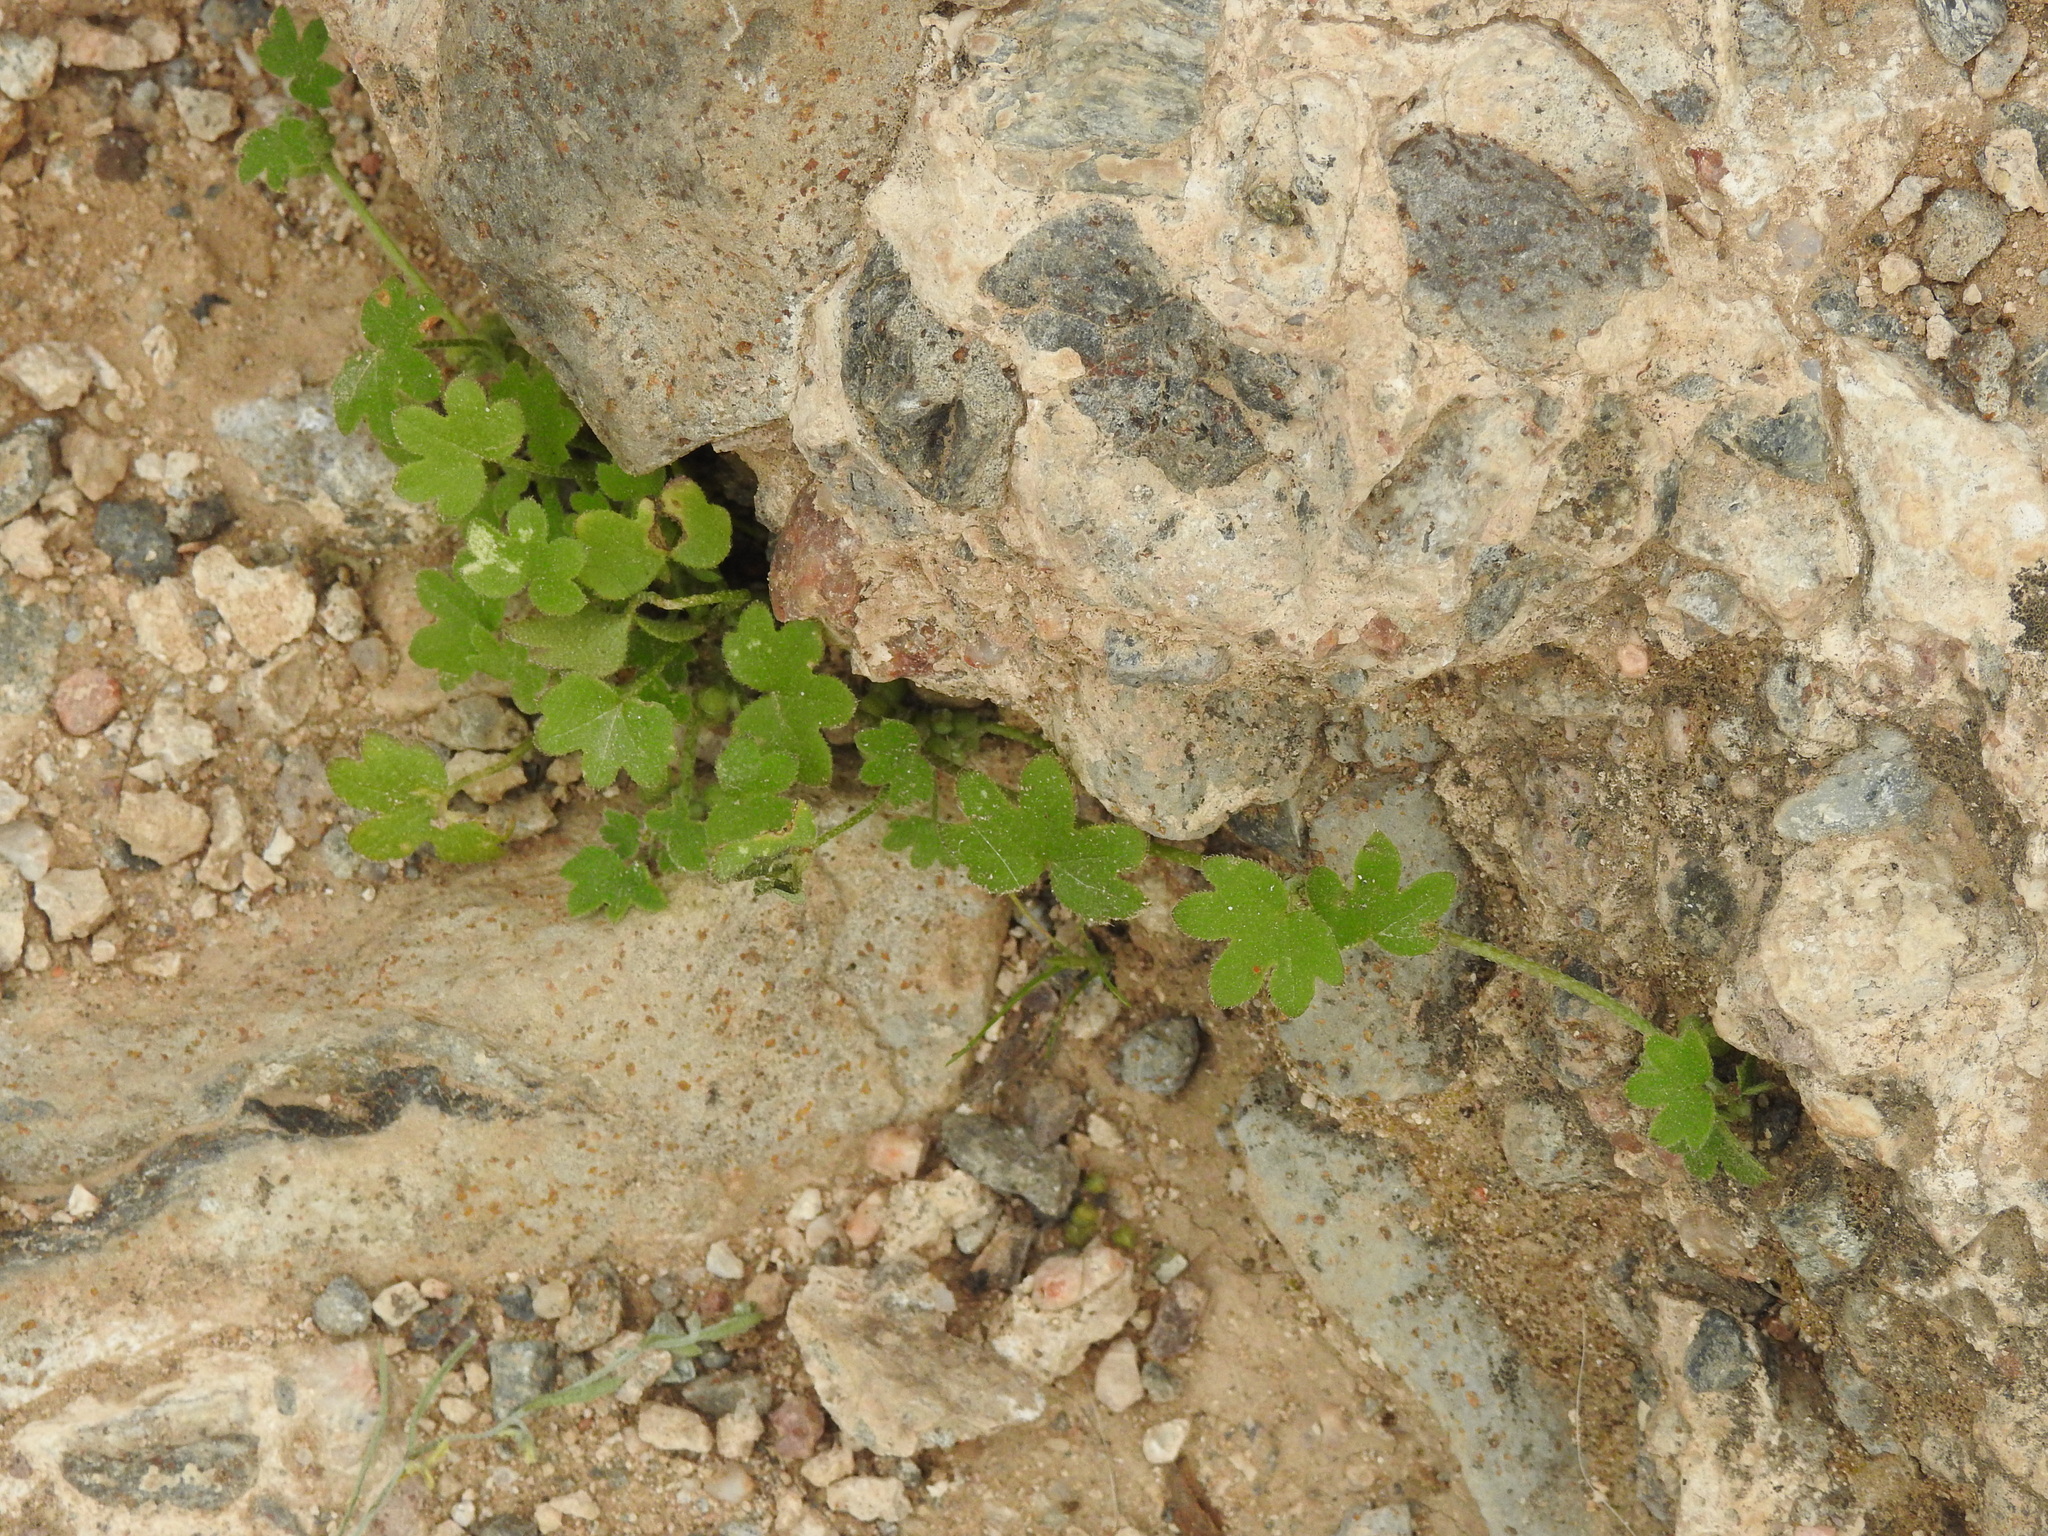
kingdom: Plantae
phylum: Tracheophyta
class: Magnoliopsida
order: Apiales
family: Apiaceae
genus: Bowlesia
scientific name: Bowlesia incana
